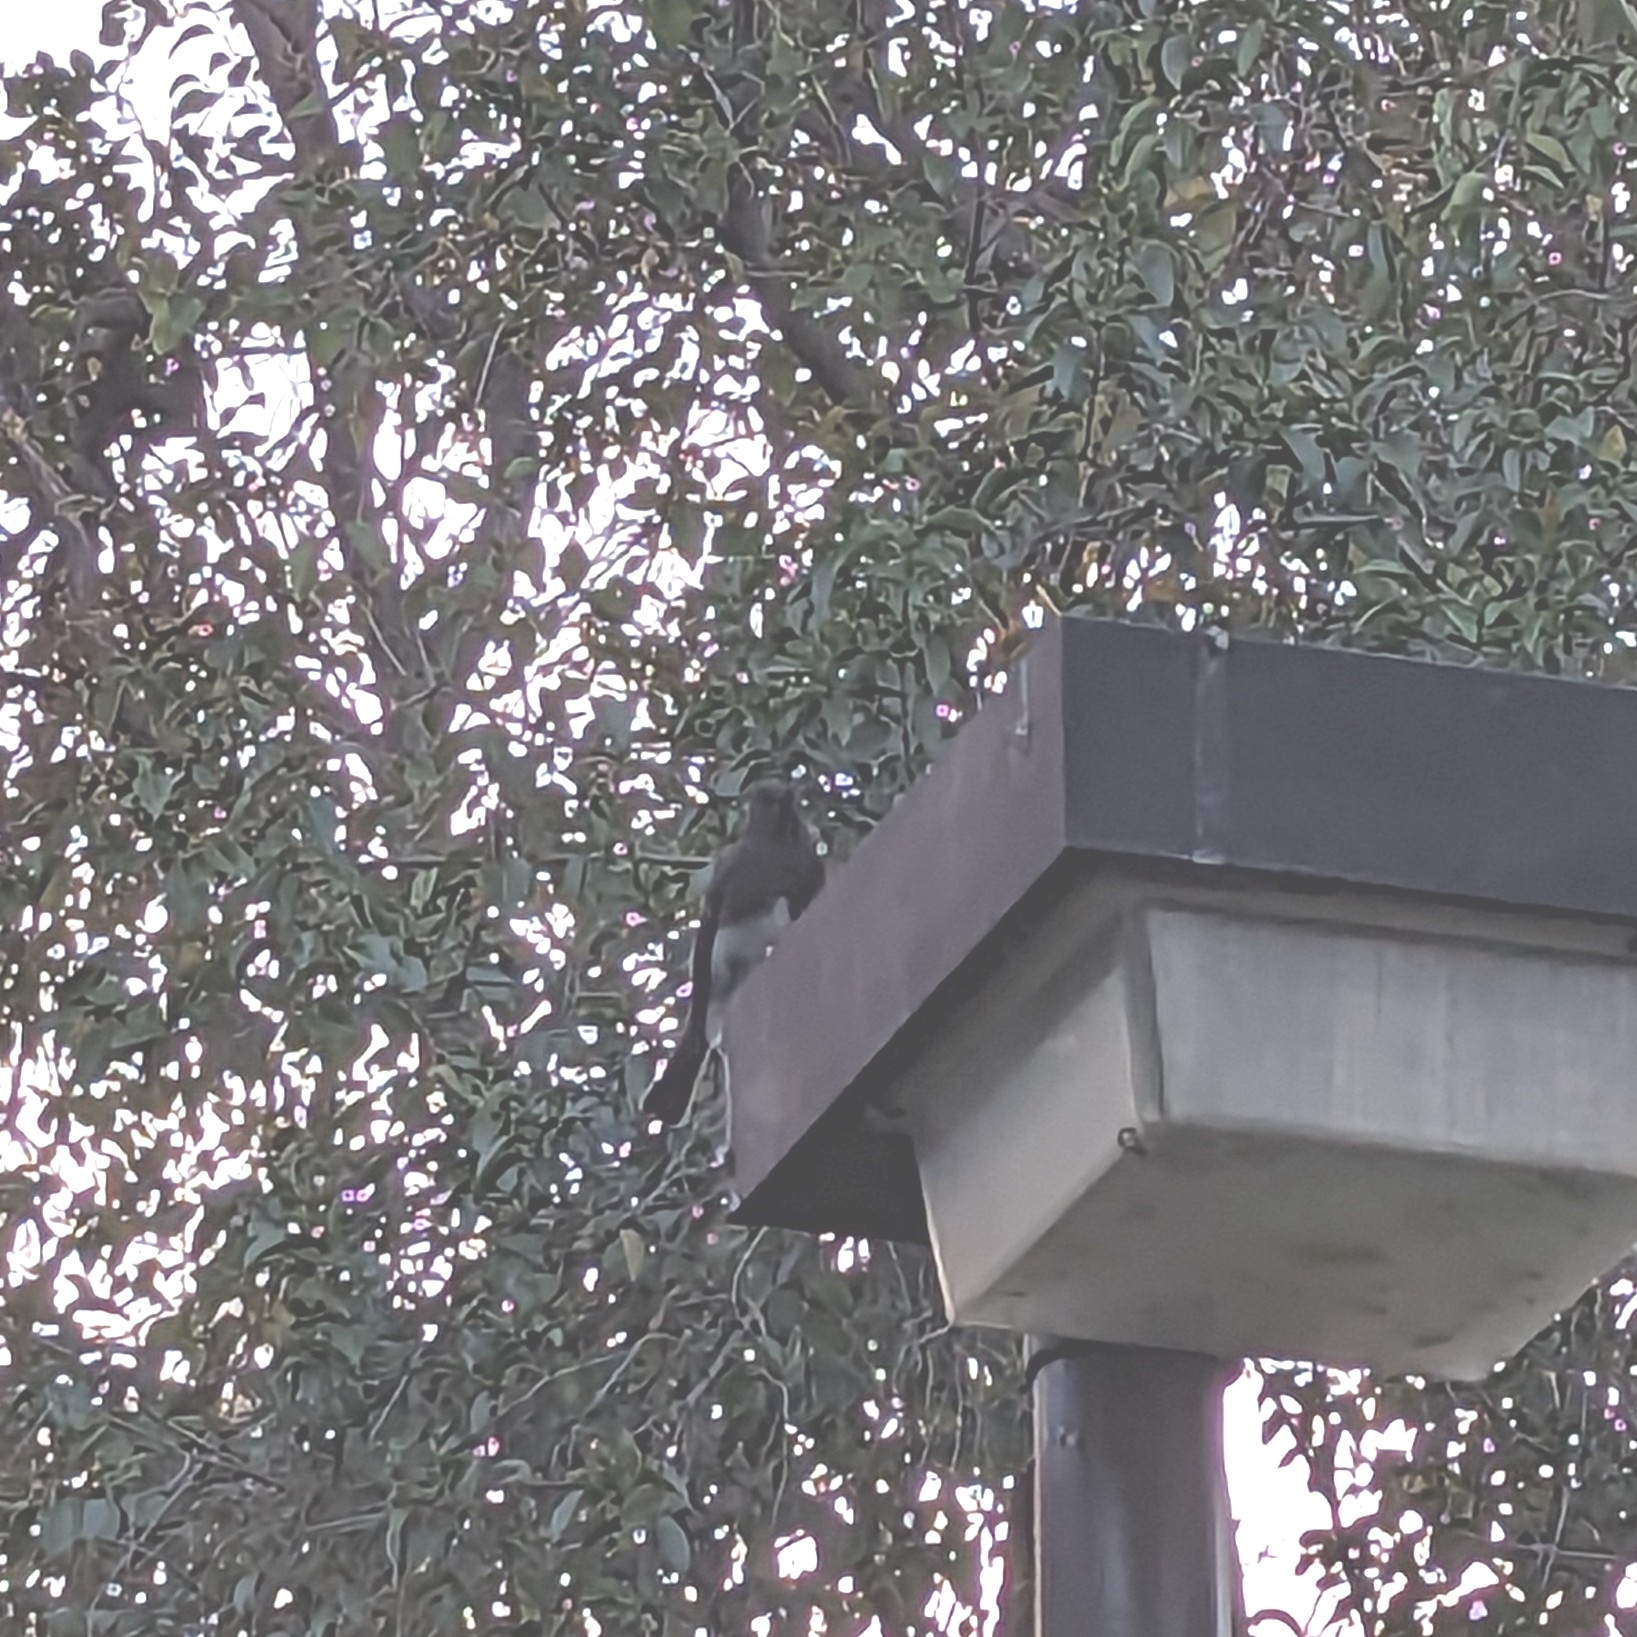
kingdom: Animalia
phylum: Chordata
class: Aves
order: Passeriformes
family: Tyrannidae
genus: Sayornis
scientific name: Sayornis nigricans
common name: Black phoebe
